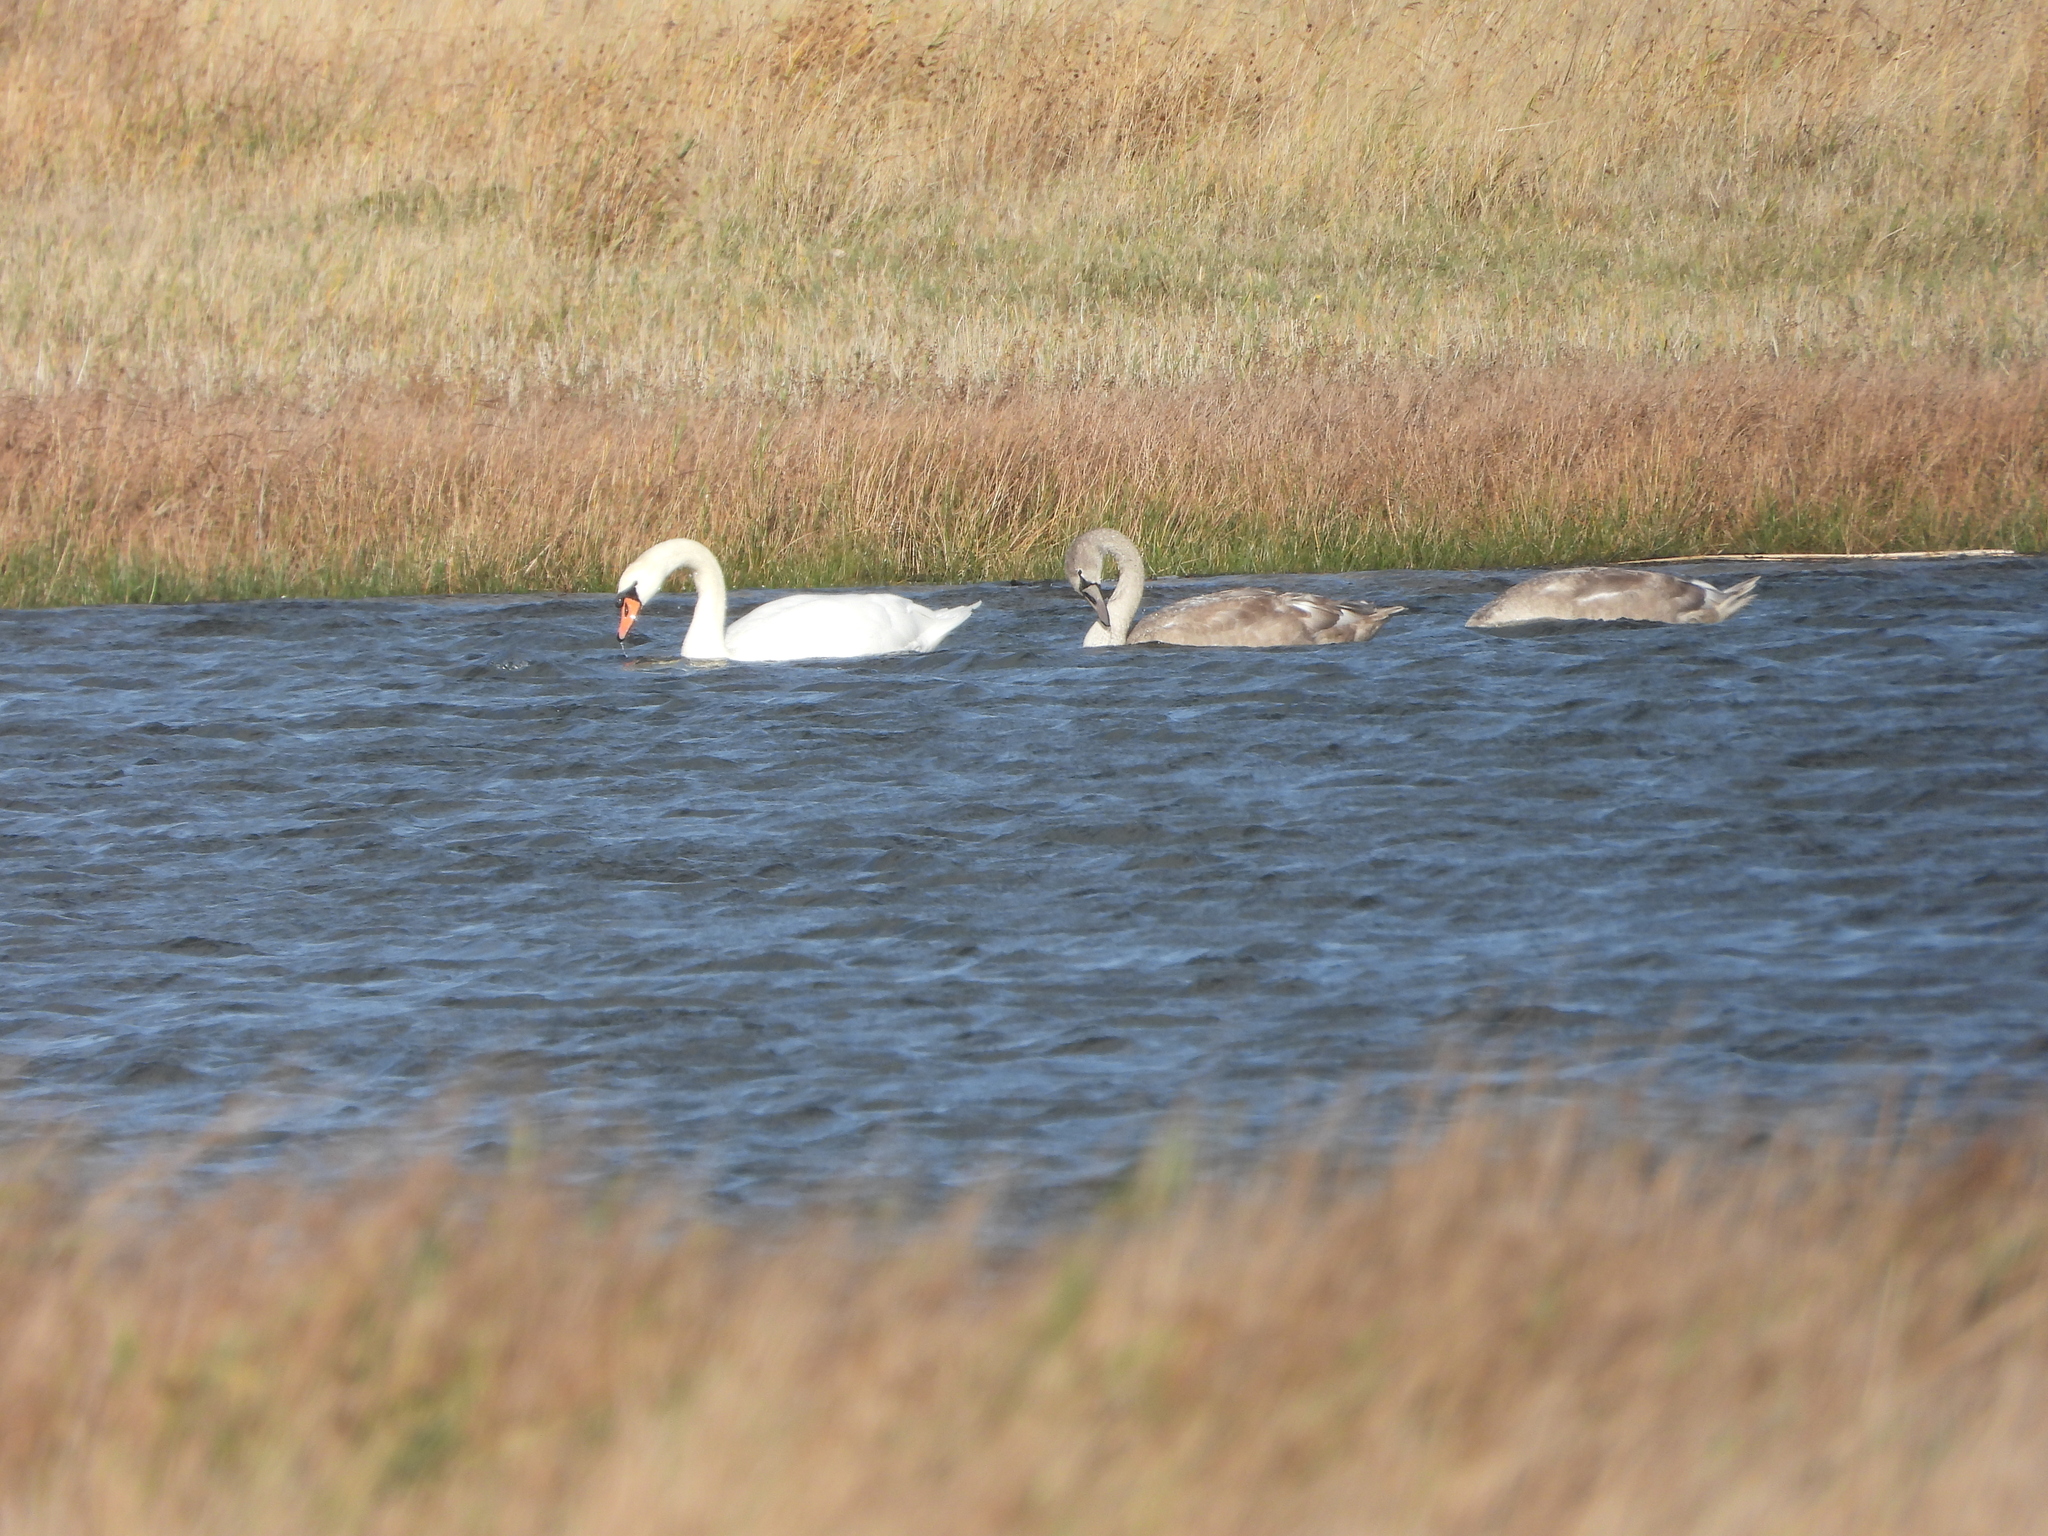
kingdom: Animalia
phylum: Chordata
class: Aves
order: Anseriformes
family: Anatidae
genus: Cygnus
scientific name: Cygnus olor
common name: Mute swan
